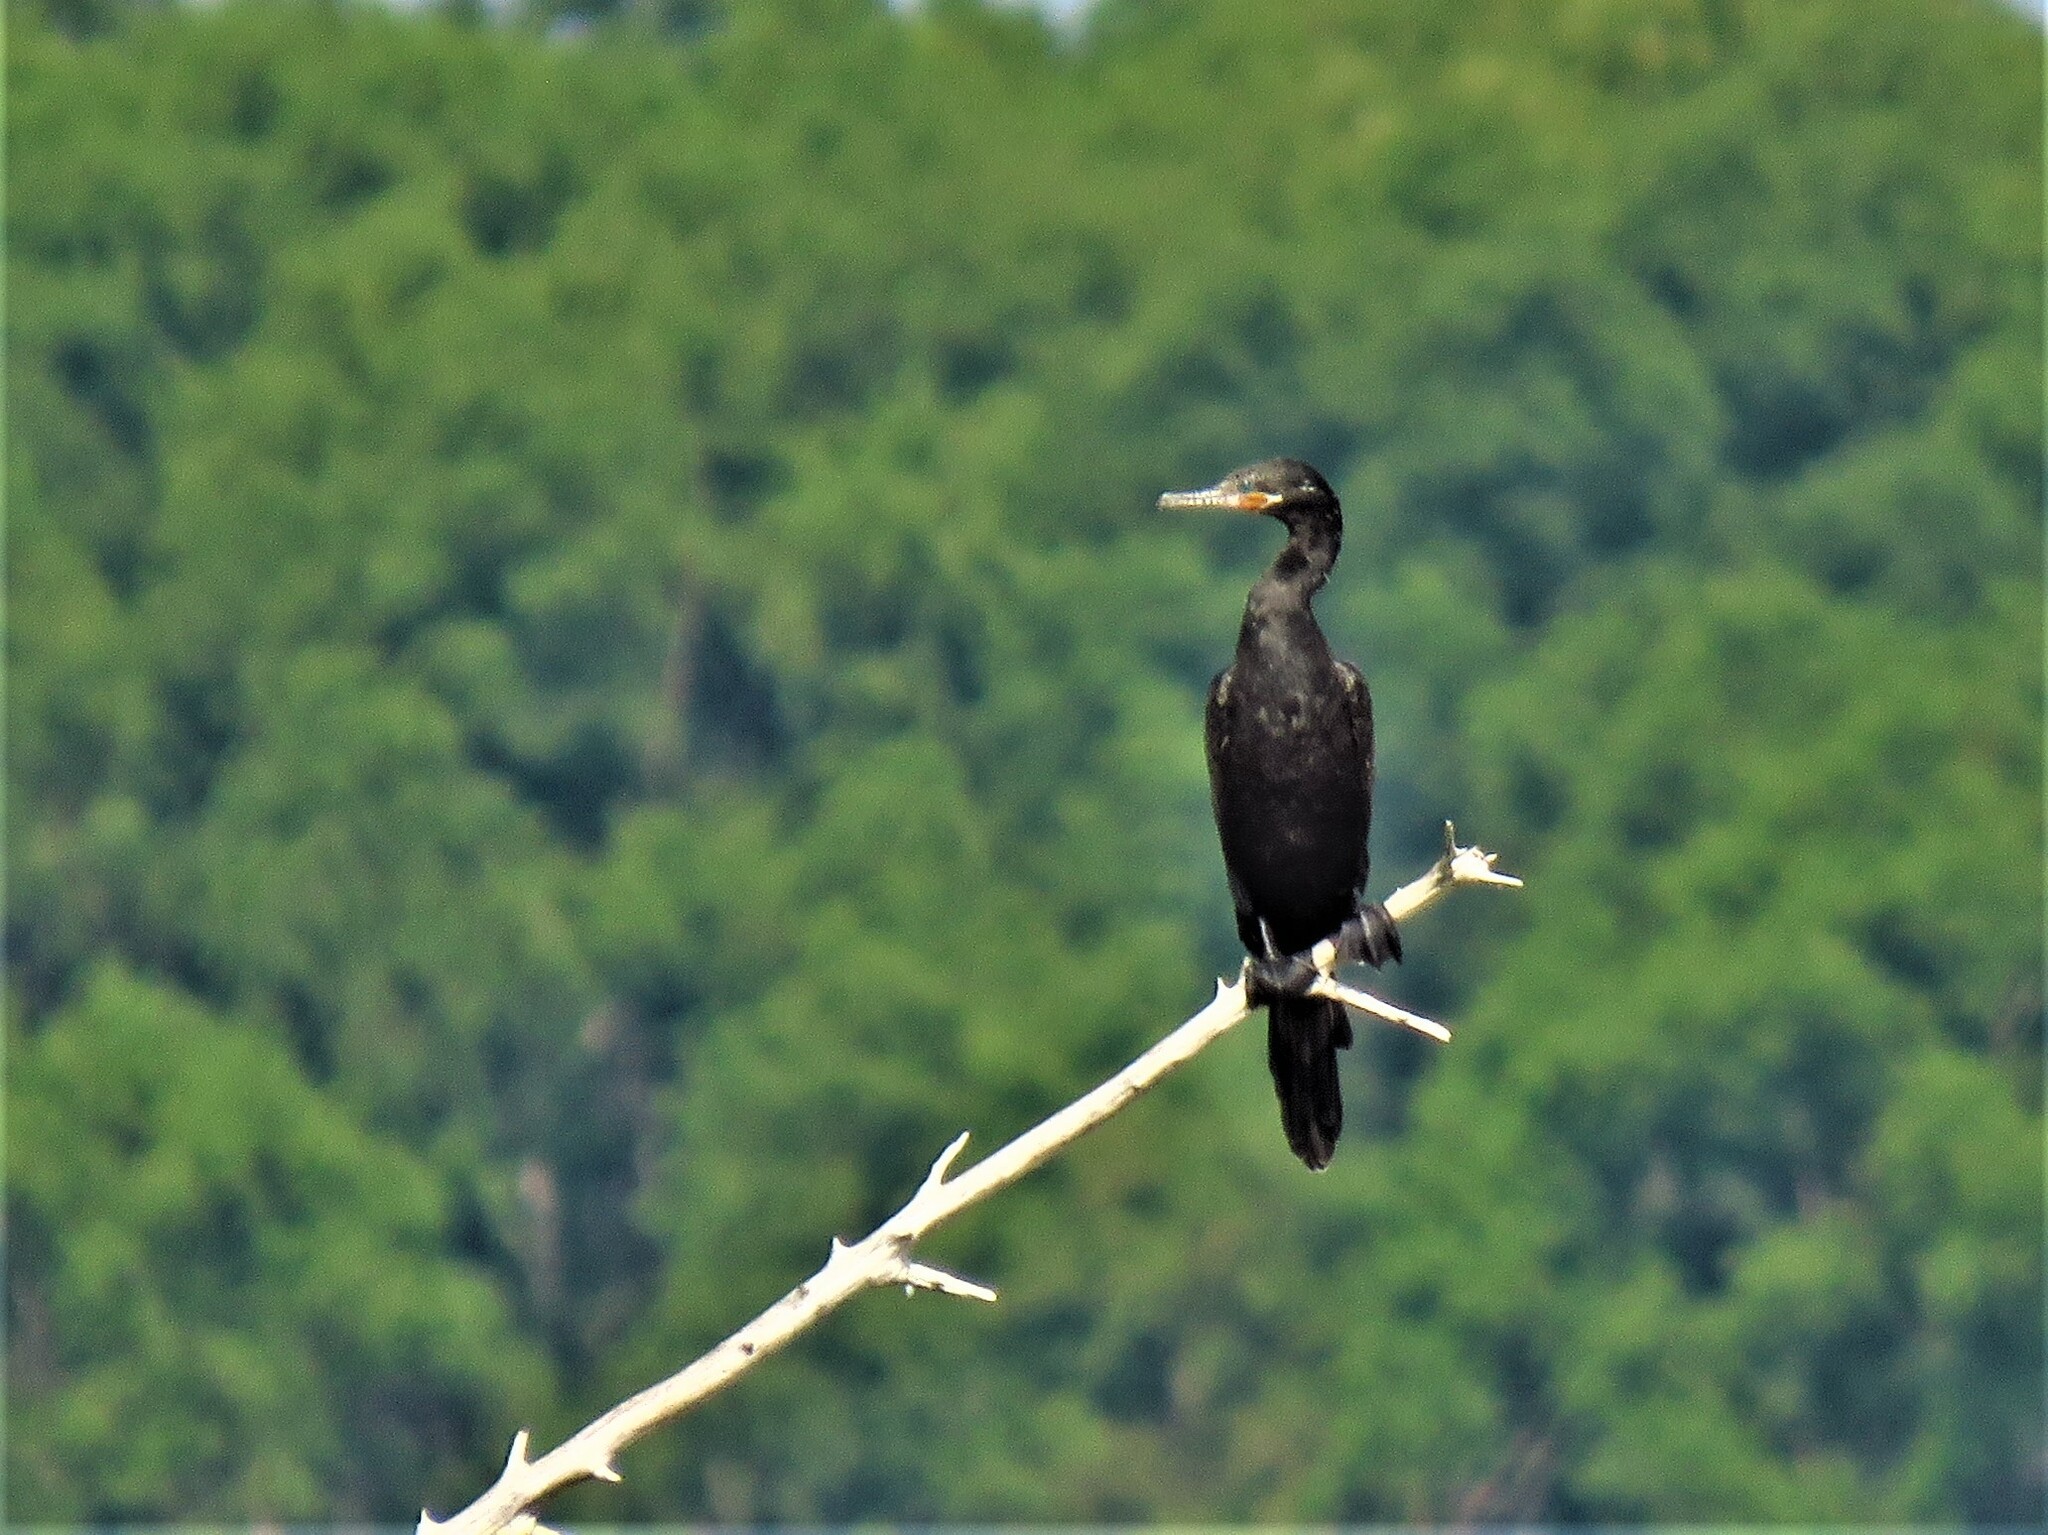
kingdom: Animalia
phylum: Chordata
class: Aves
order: Suliformes
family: Phalacrocoracidae
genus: Phalacrocorax
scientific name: Phalacrocorax brasilianus
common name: Neotropic cormorant
